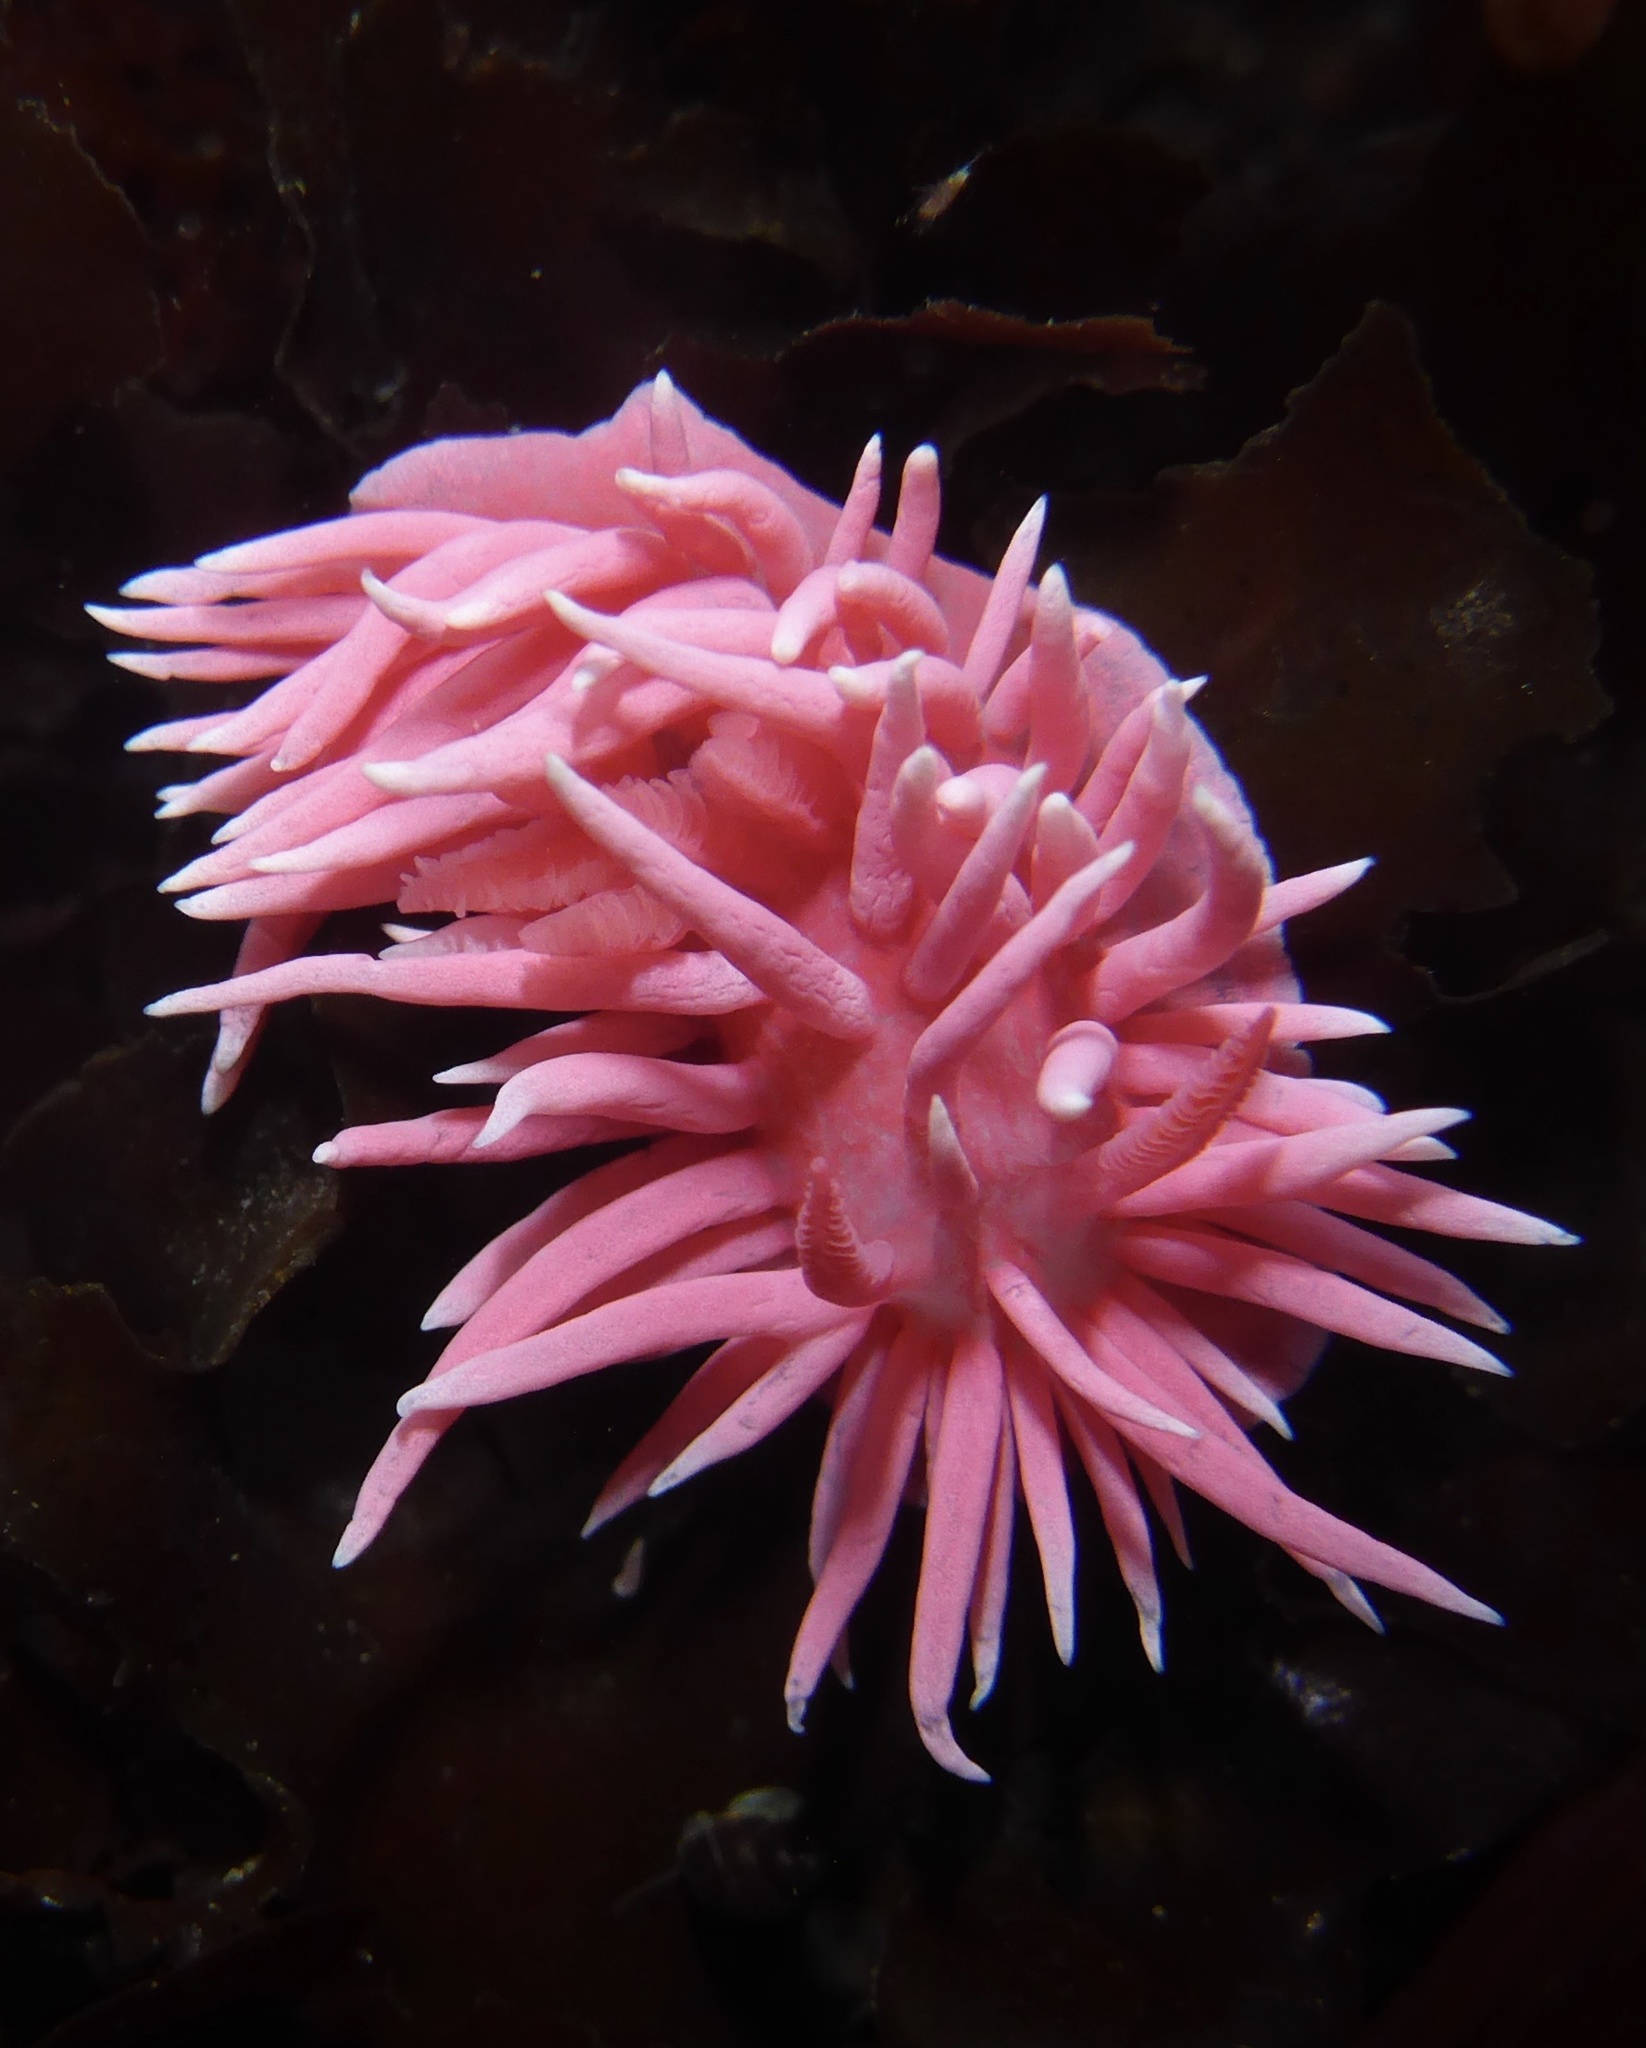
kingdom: Animalia
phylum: Mollusca
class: Gastropoda
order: Nudibranchia
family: Goniodorididae
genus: Okenia
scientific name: Okenia
